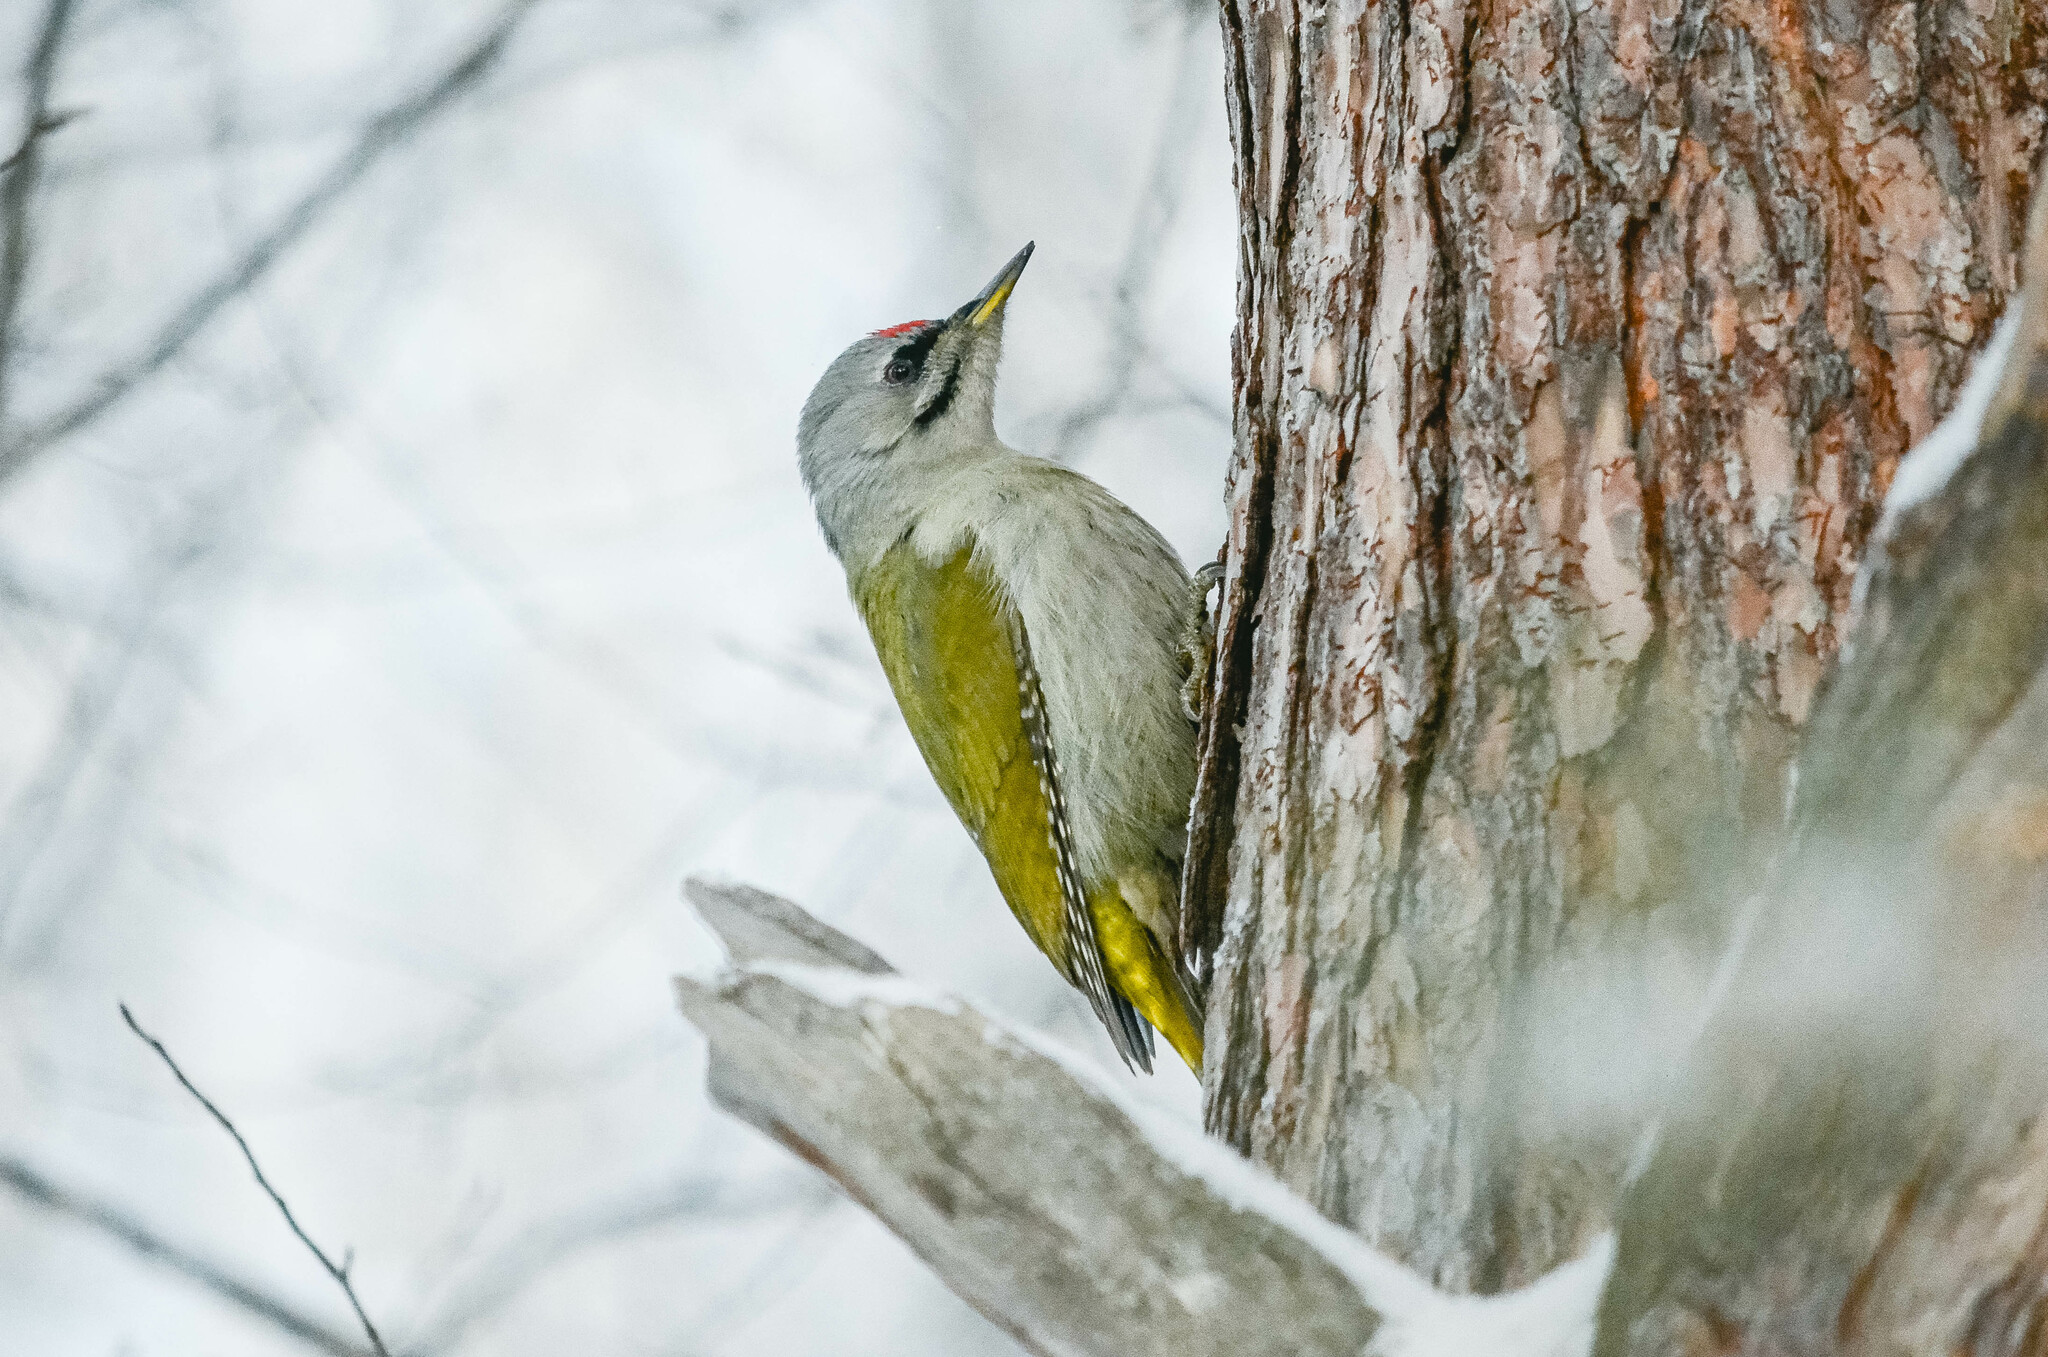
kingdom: Animalia
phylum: Chordata
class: Aves
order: Piciformes
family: Picidae
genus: Picus
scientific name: Picus canus
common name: Grey-headed woodpecker
